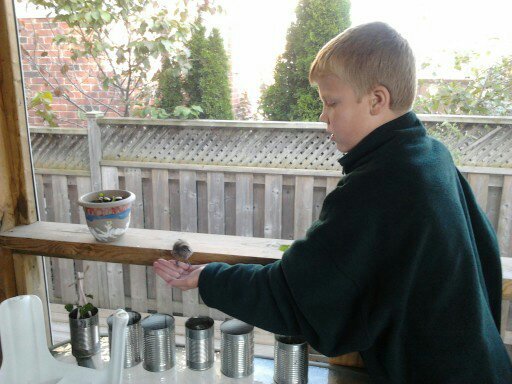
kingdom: Animalia
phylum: Chordata
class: Aves
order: Passeriformes
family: Icteridae
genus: Molothrus
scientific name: Molothrus ater
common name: Brown-headed cowbird
